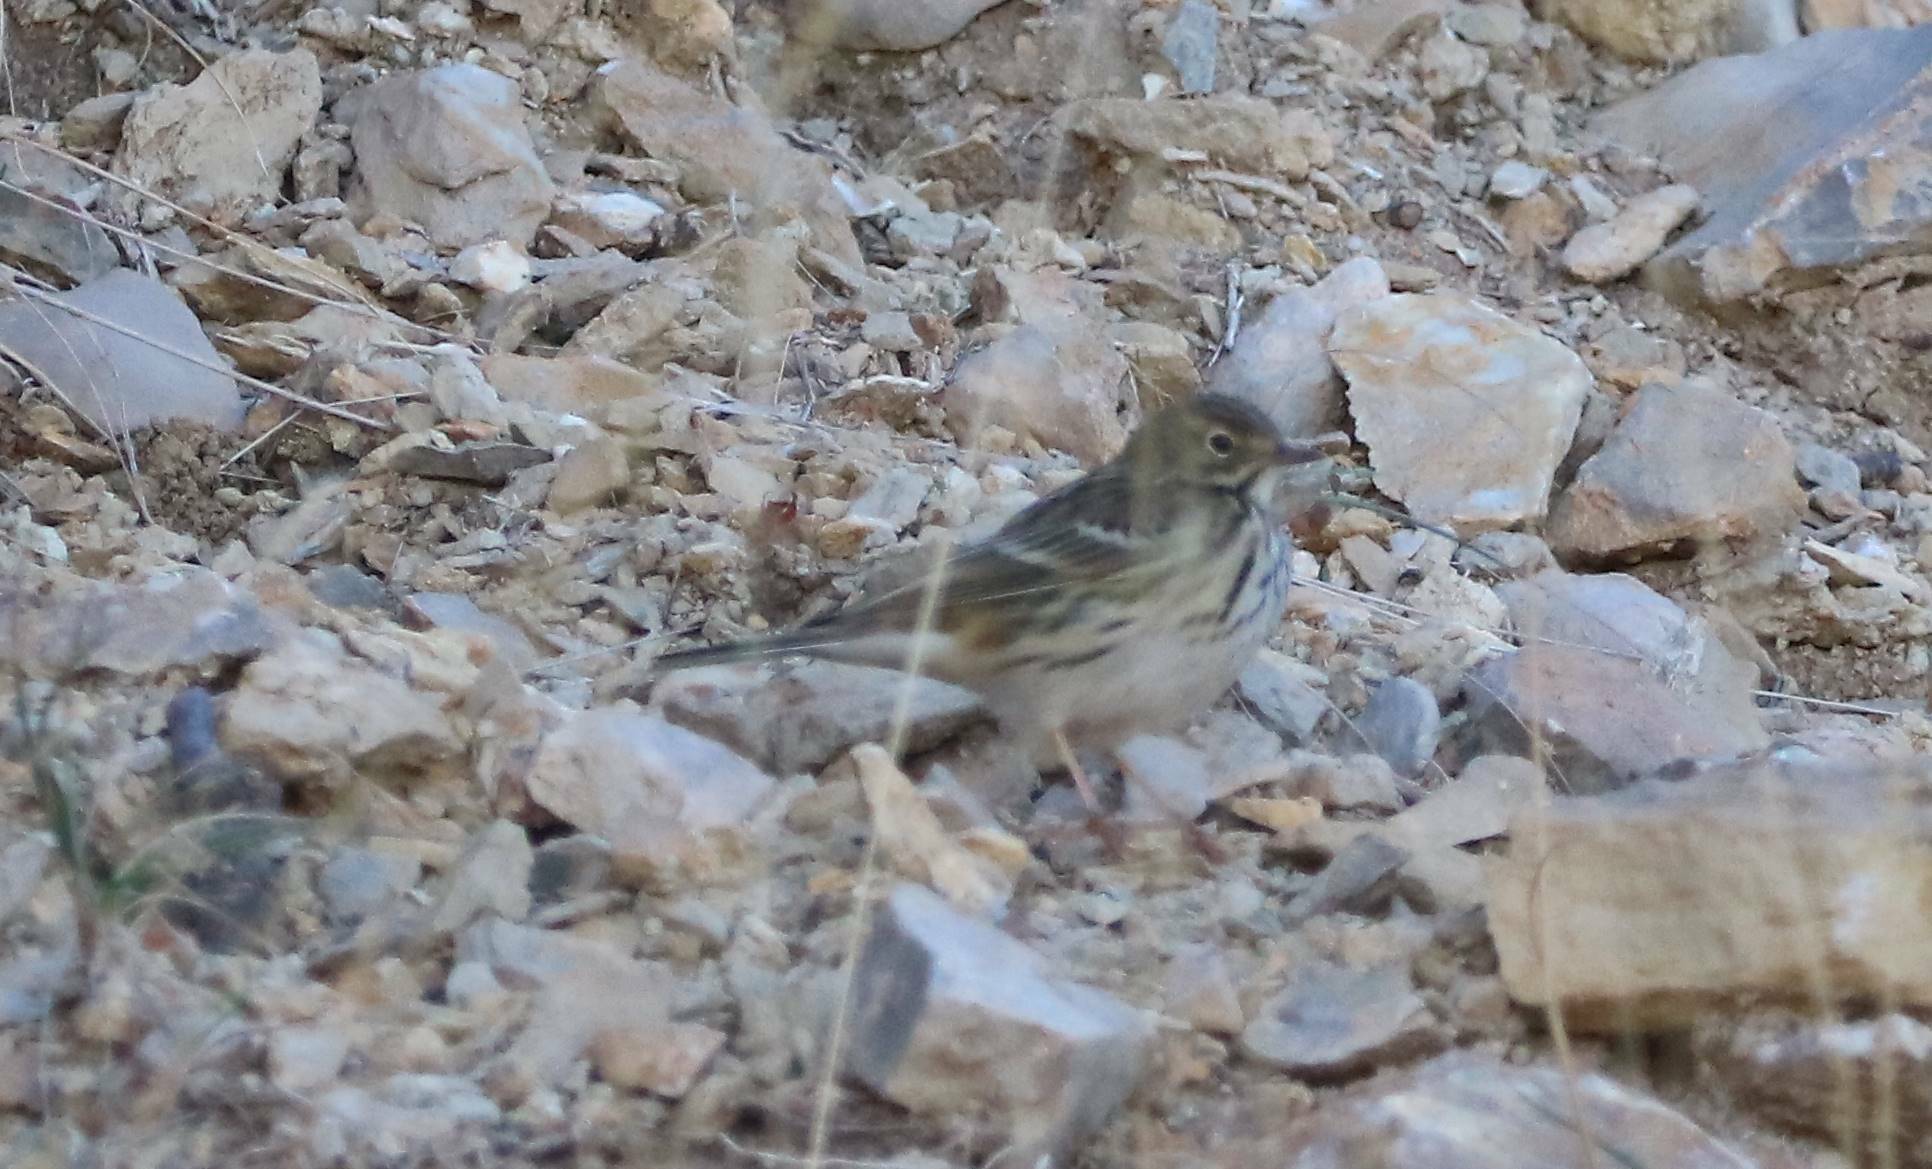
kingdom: Animalia
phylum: Chordata
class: Aves
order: Passeriformes
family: Motacillidae
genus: Anthus
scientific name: Anthus pratensis
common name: Meadow pipit
